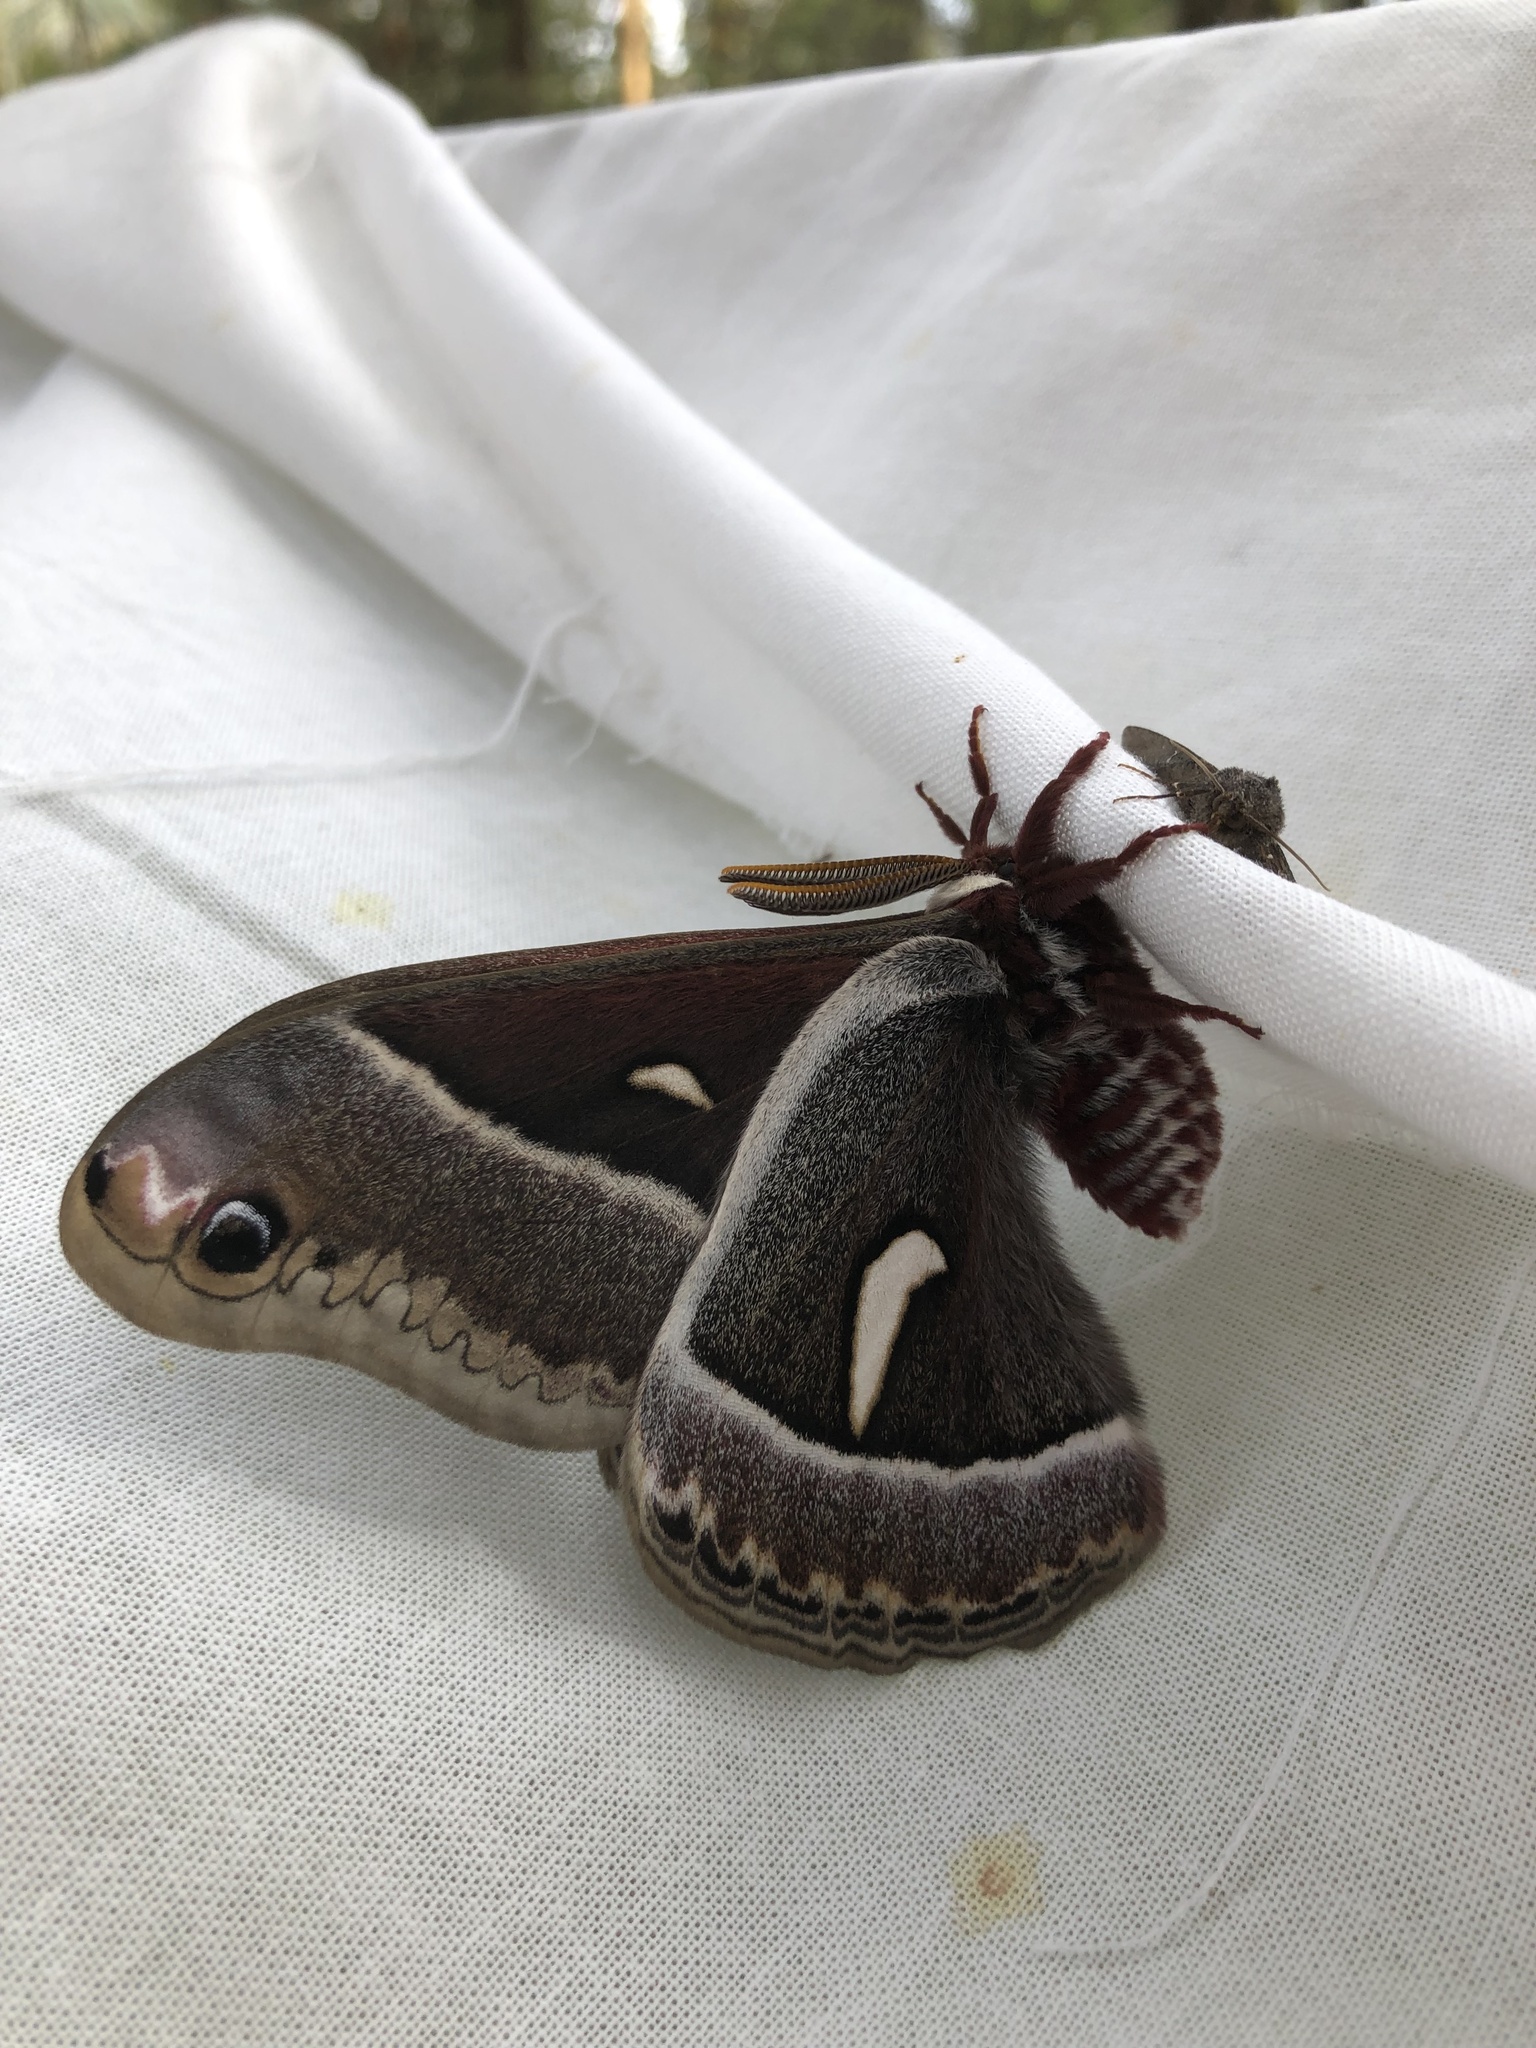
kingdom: Animalia
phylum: Arthropoda
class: Insecta
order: Lepidoptera
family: Saturniidae
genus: Hyalophora
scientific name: Hyalophora euryalus
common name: Ceanothus silkmoth
